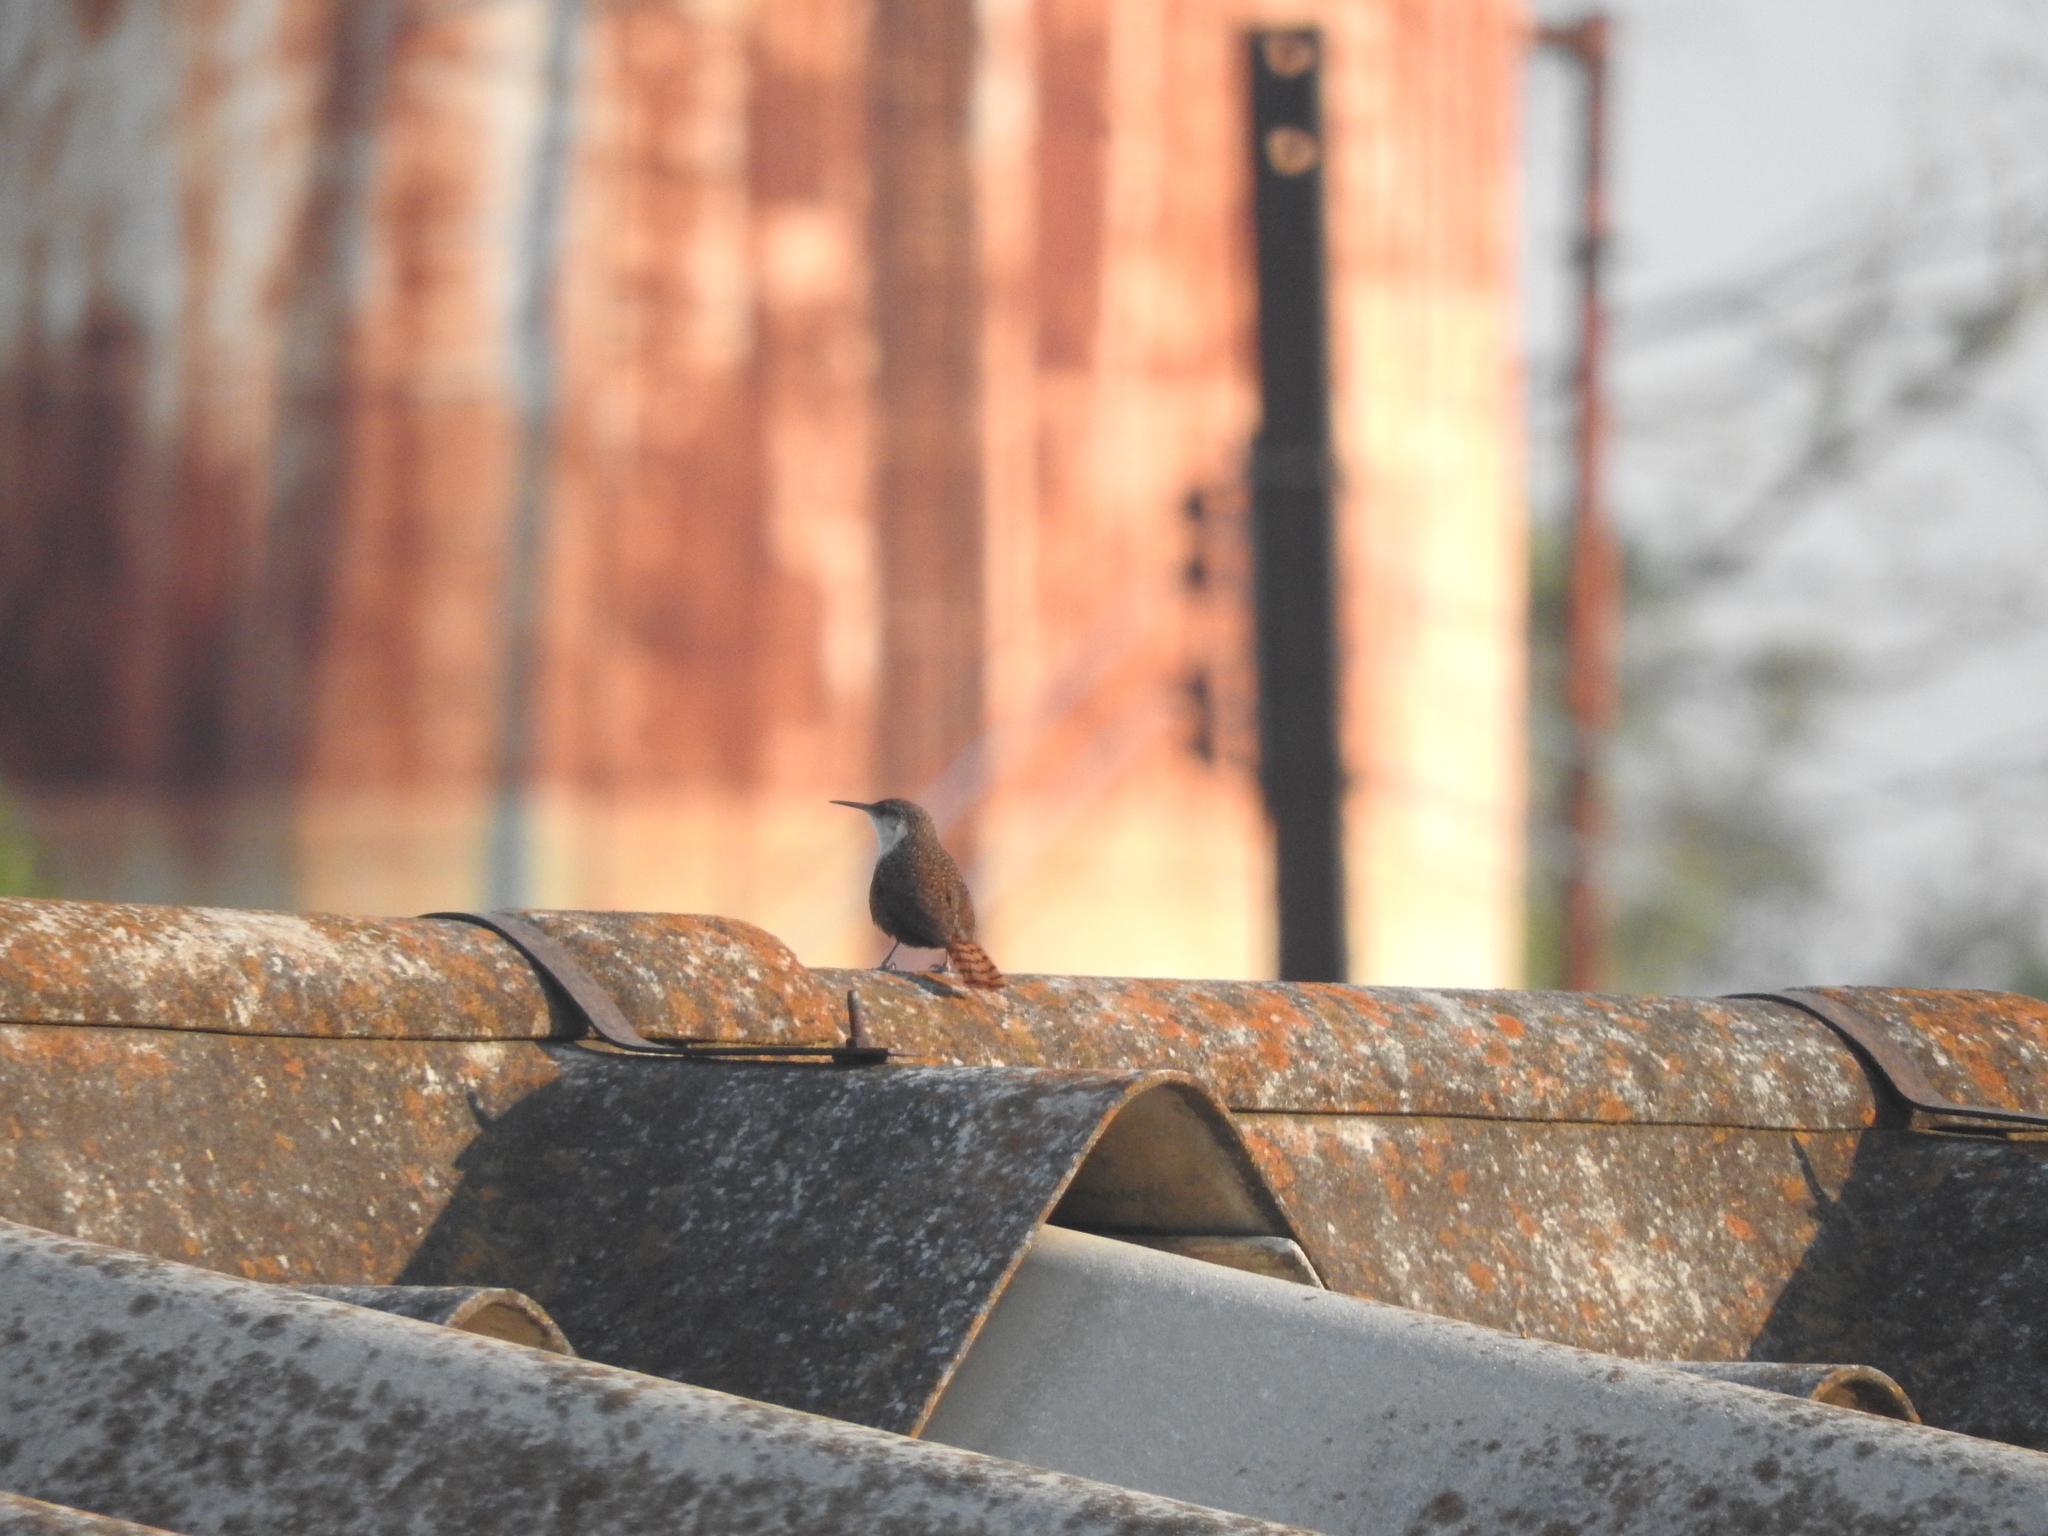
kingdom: Animalia
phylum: Chordata
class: Aves
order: Passeriformes
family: Troglodytidae
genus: Catherpes
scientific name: Catherpes mexicanus
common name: Canyon wren
